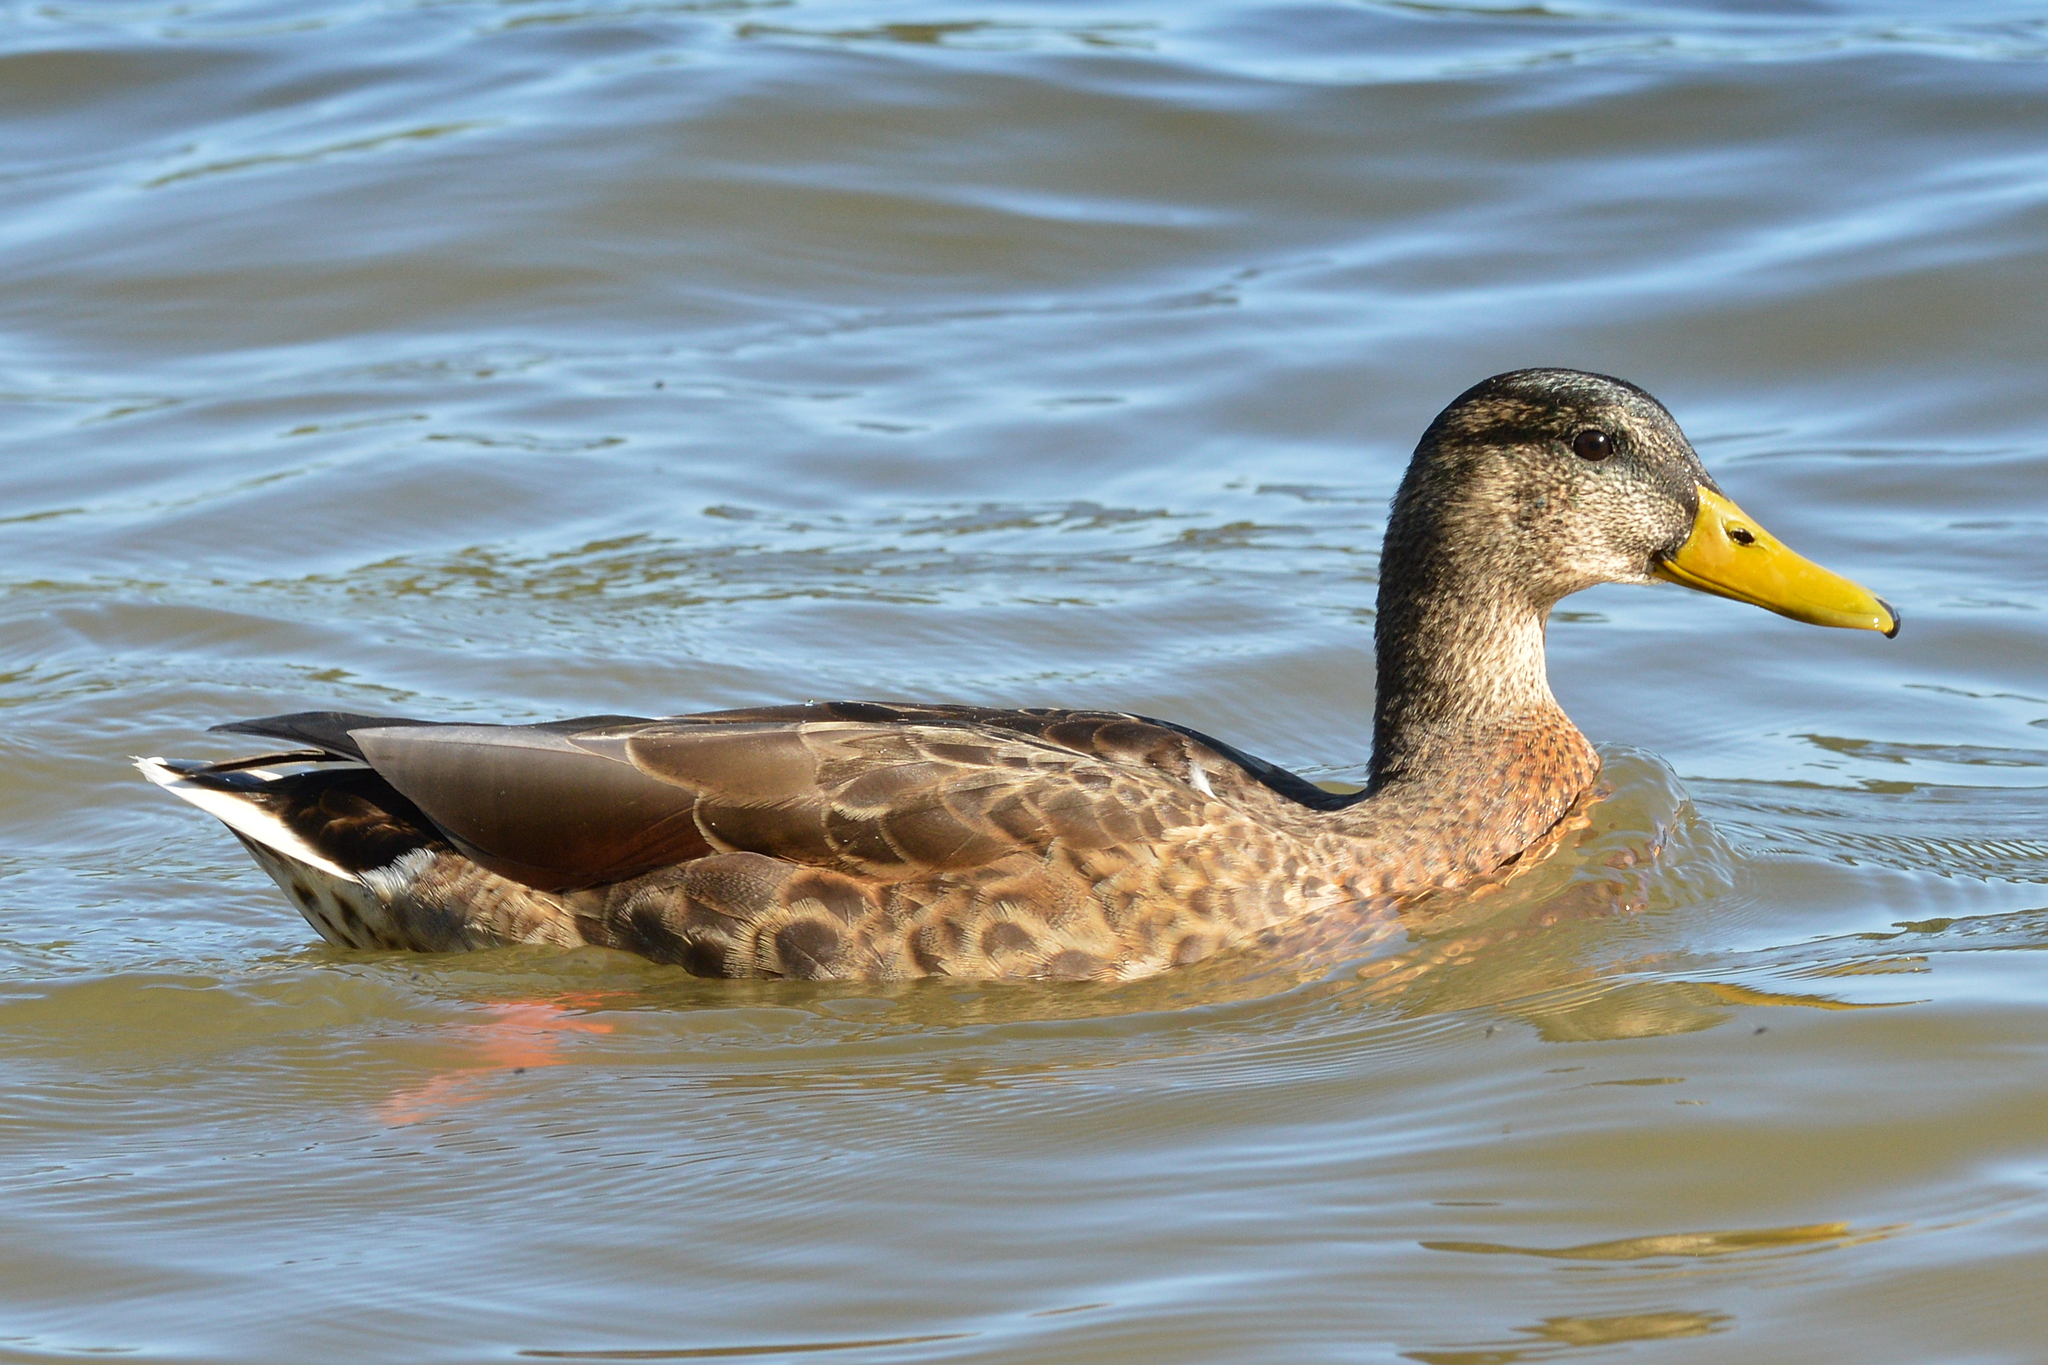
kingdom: Animalia
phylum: Chordata
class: Aves
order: Anseriformes
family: Anatidae
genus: Anas
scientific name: Anas platyrhynchos
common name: Mallard
